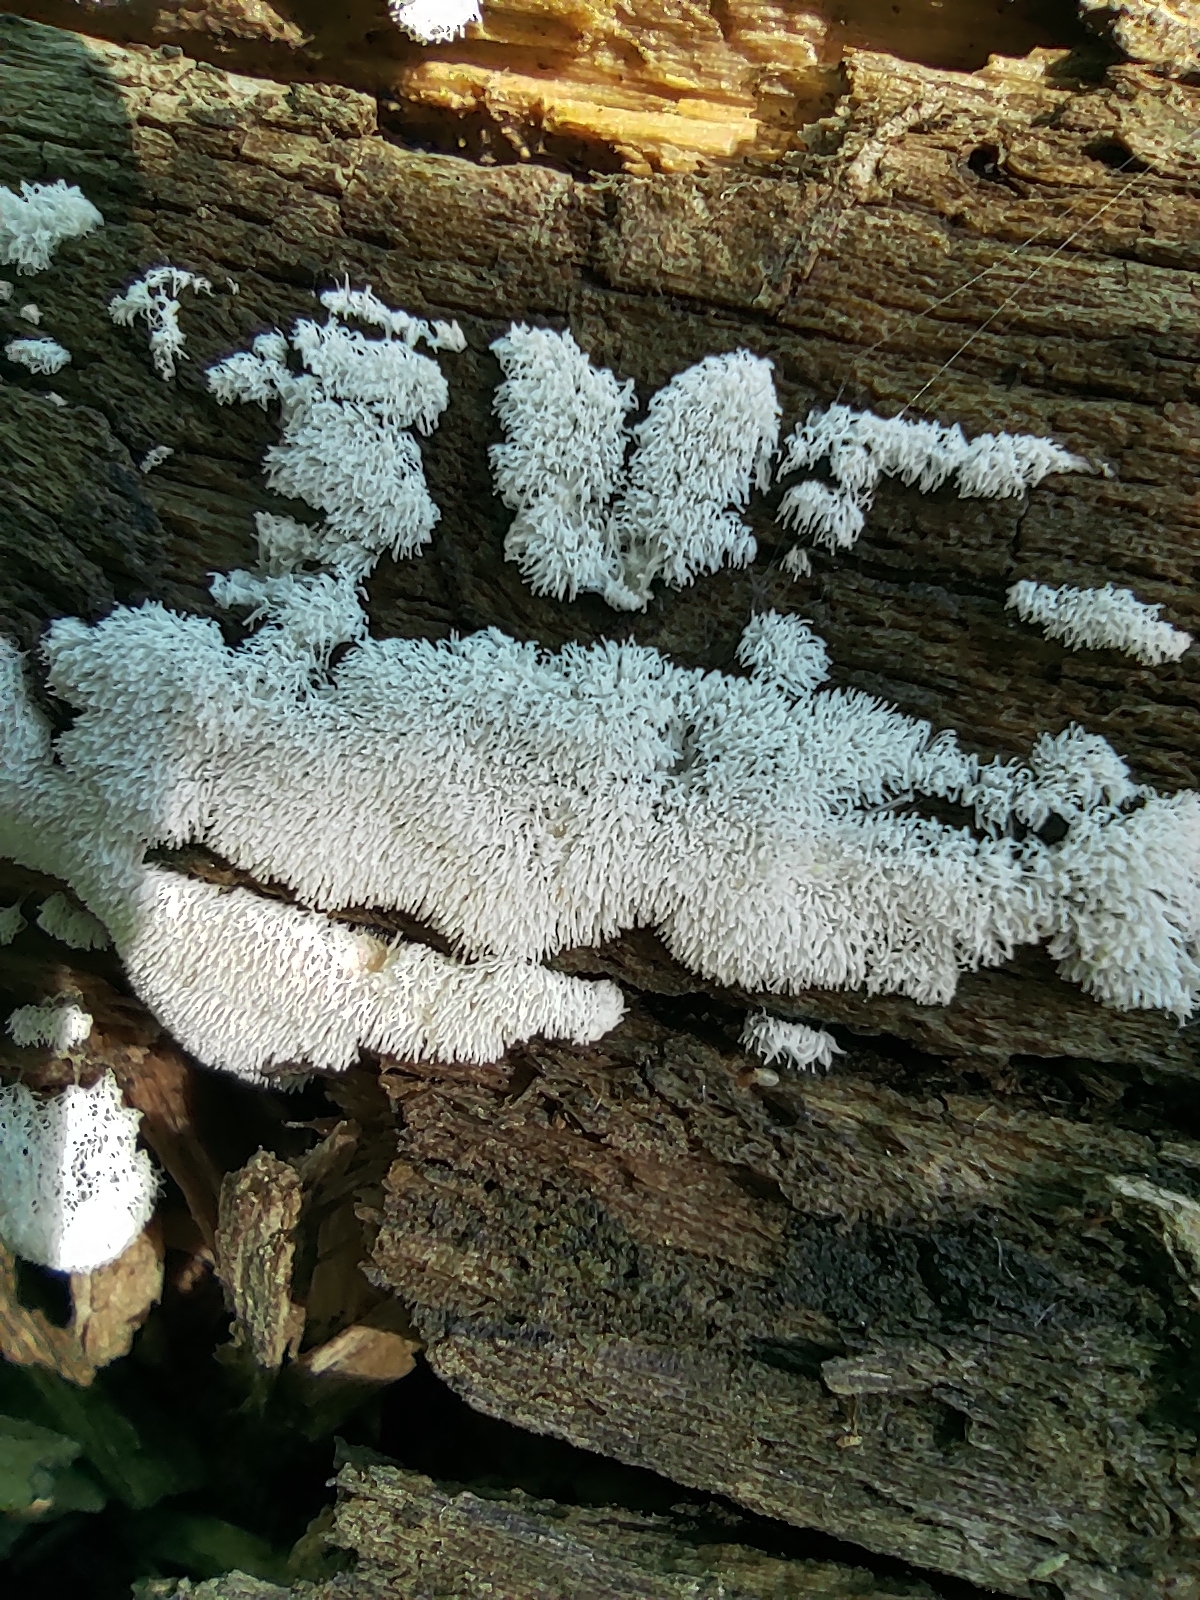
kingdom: Protozoa
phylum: Mycetozoa
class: Protosteliomycetes
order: Ceratiomyxales
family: Ceratiomyxaceae
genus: Ceratiomyxa
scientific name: Ceratiomyxa fruticulosa
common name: Honeycomb coral slime mold
